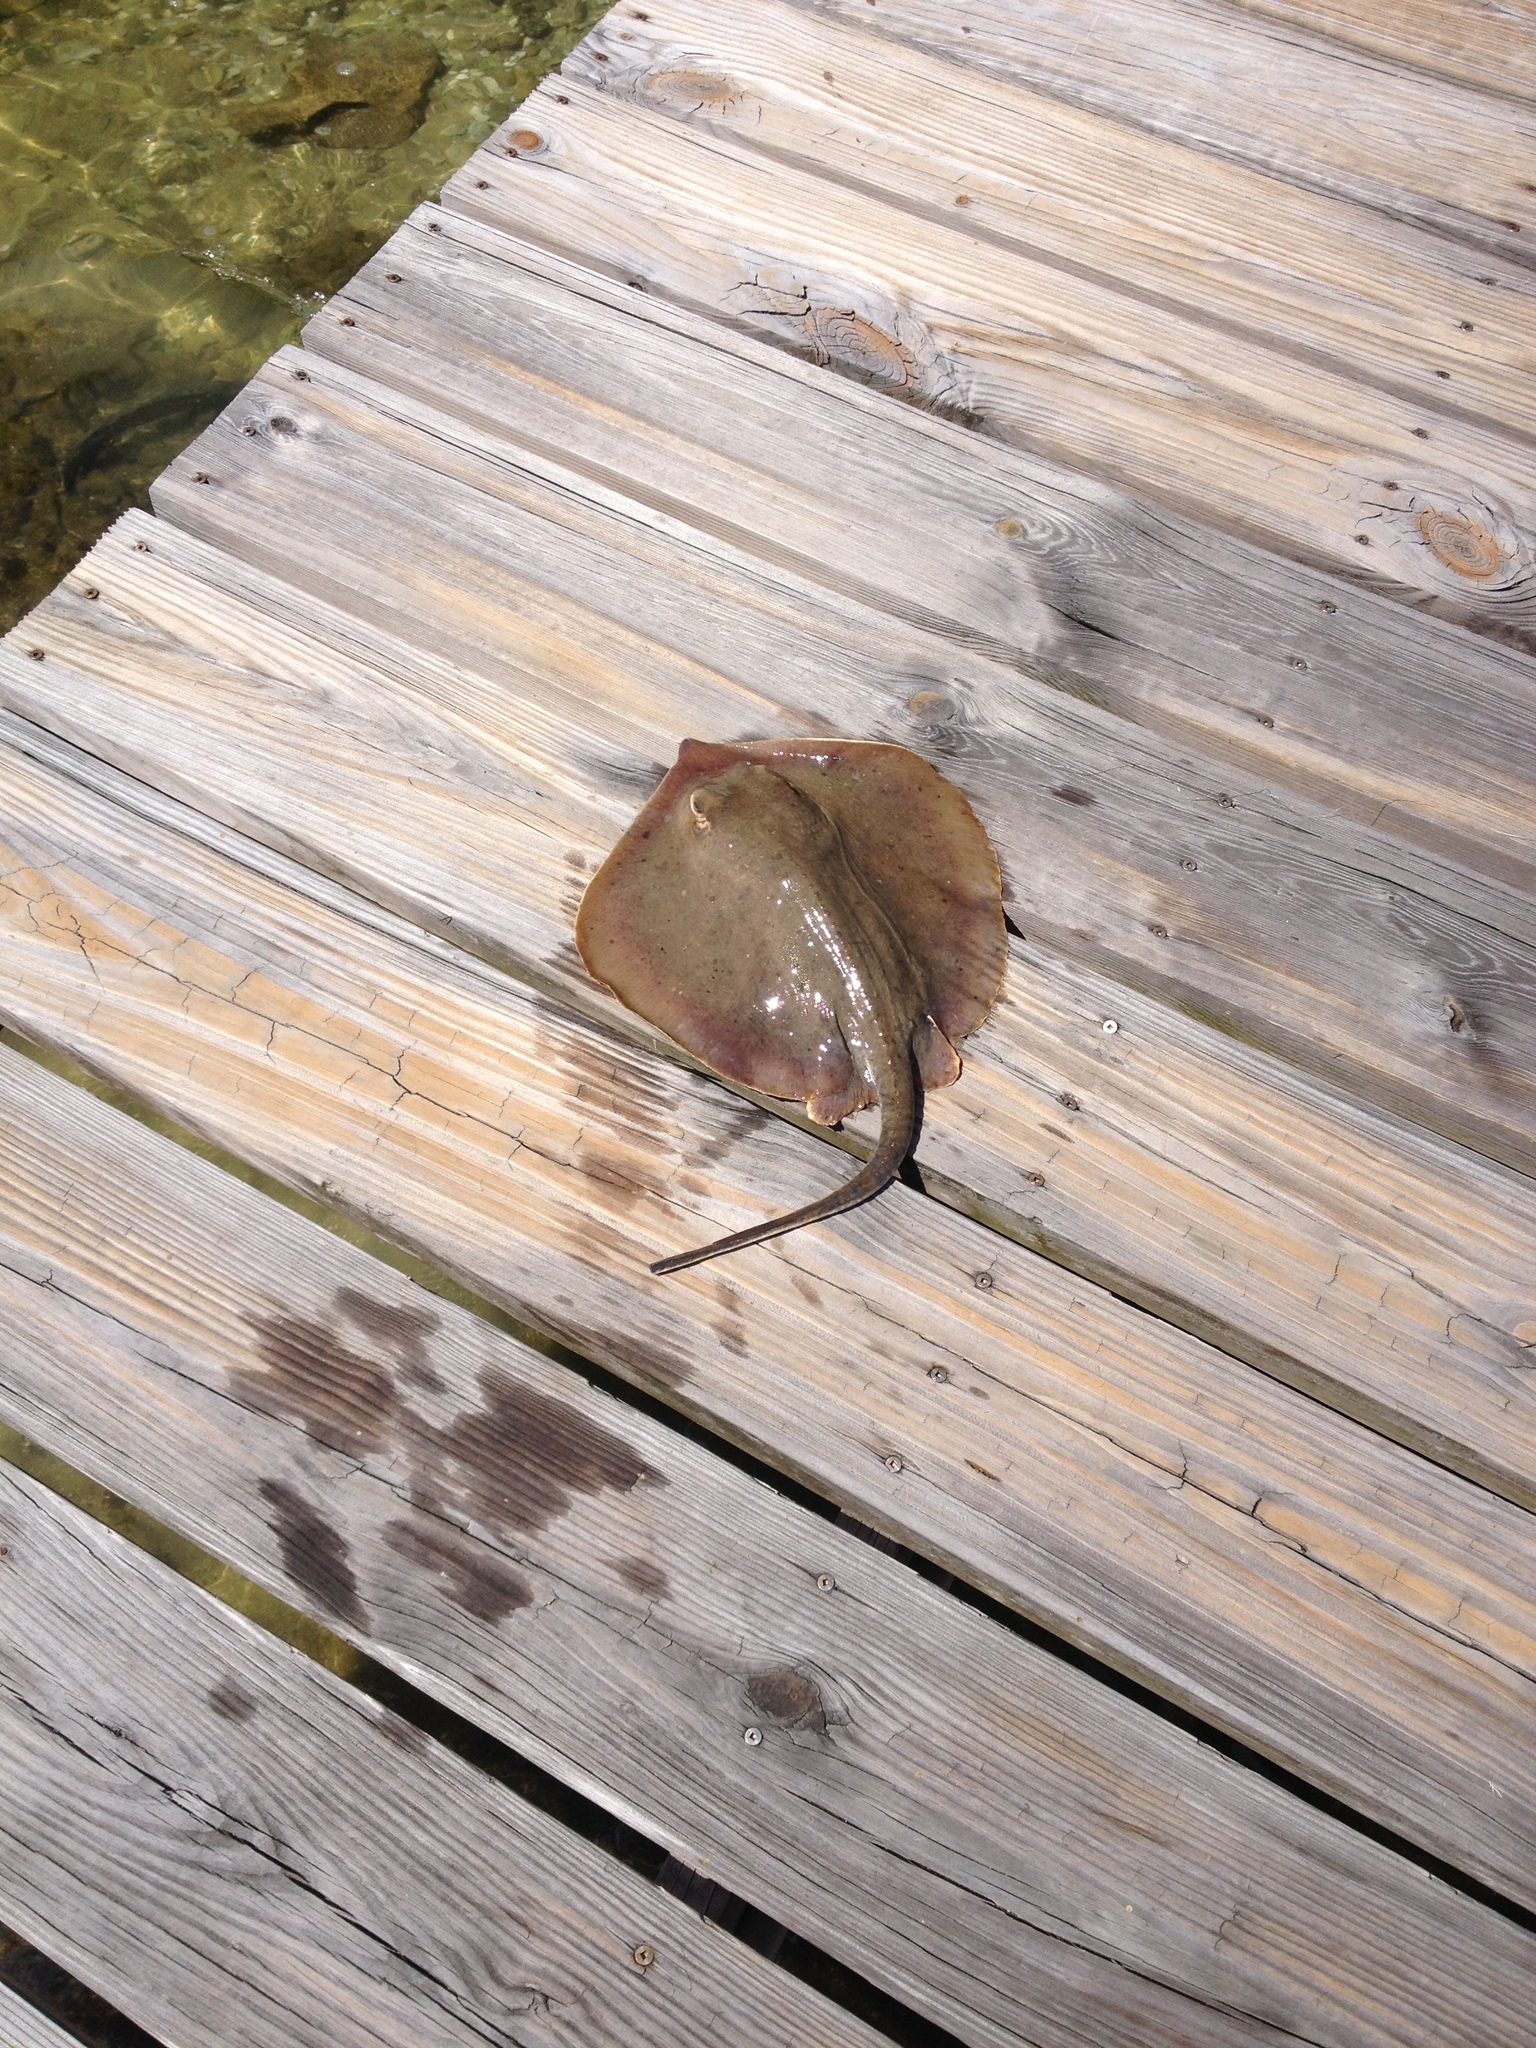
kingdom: Animalia
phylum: Chordata
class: Elasmobranchii
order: Myliobatiformes
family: Dasyatidae
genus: Hypanus
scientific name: Hypanus sabinus
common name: Atlantic stingray
